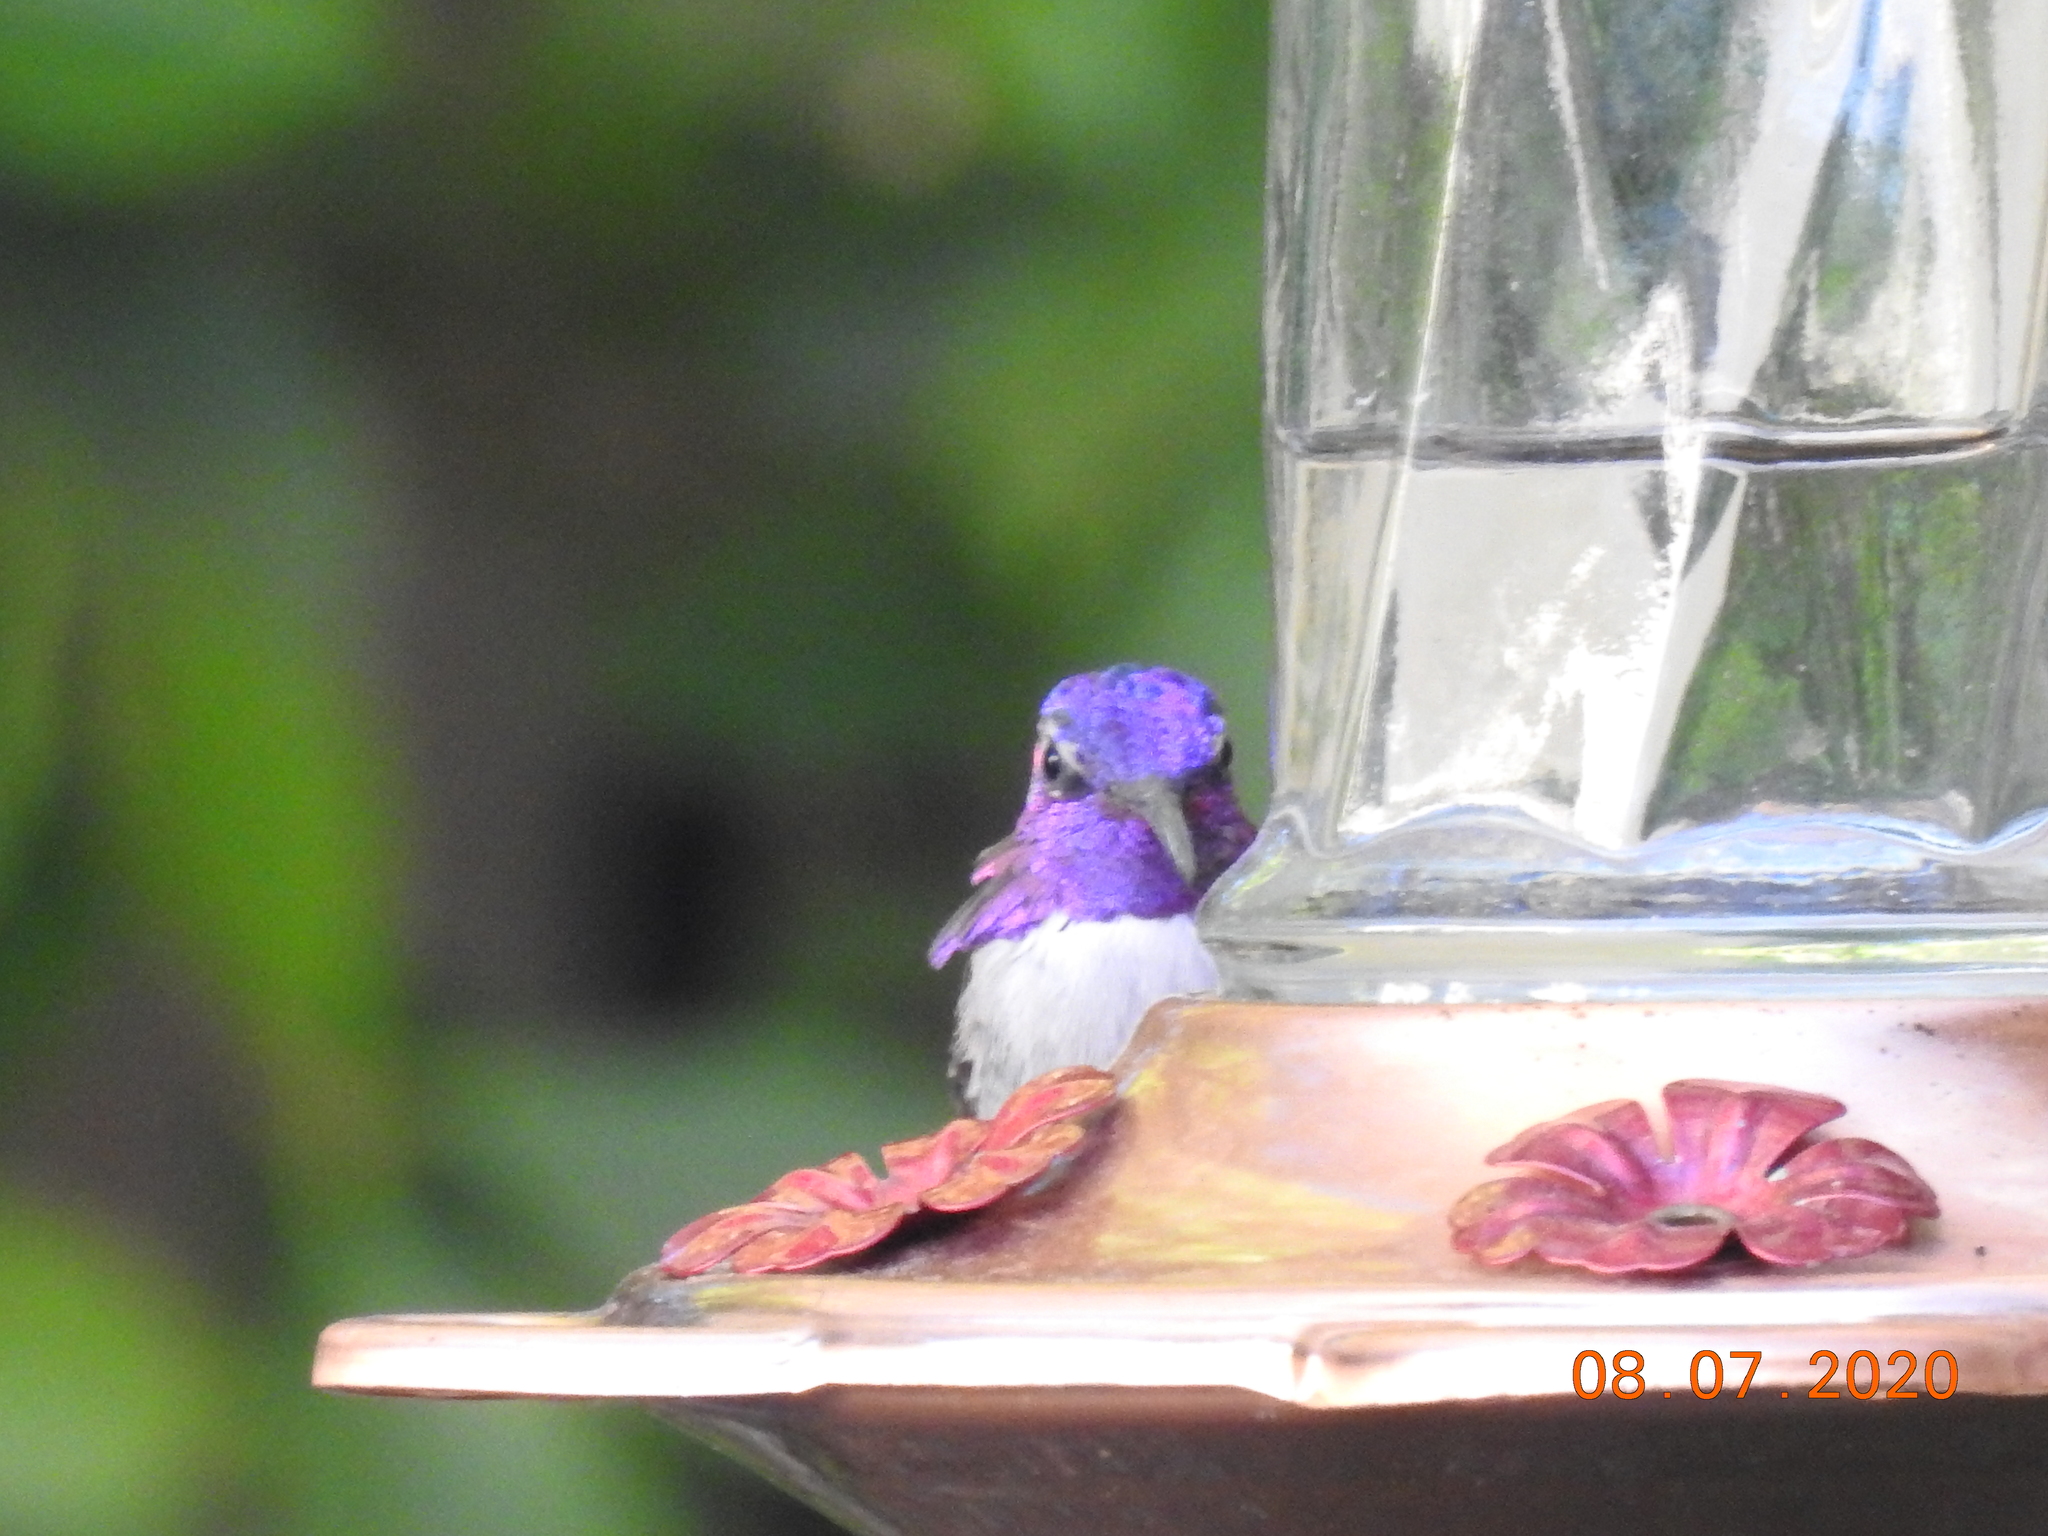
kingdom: Animalia
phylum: Chordata
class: Aves
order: Apodiformes
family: Trochilidae
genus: Calypte
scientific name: Calypte costae
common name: Costa's hummingbird
